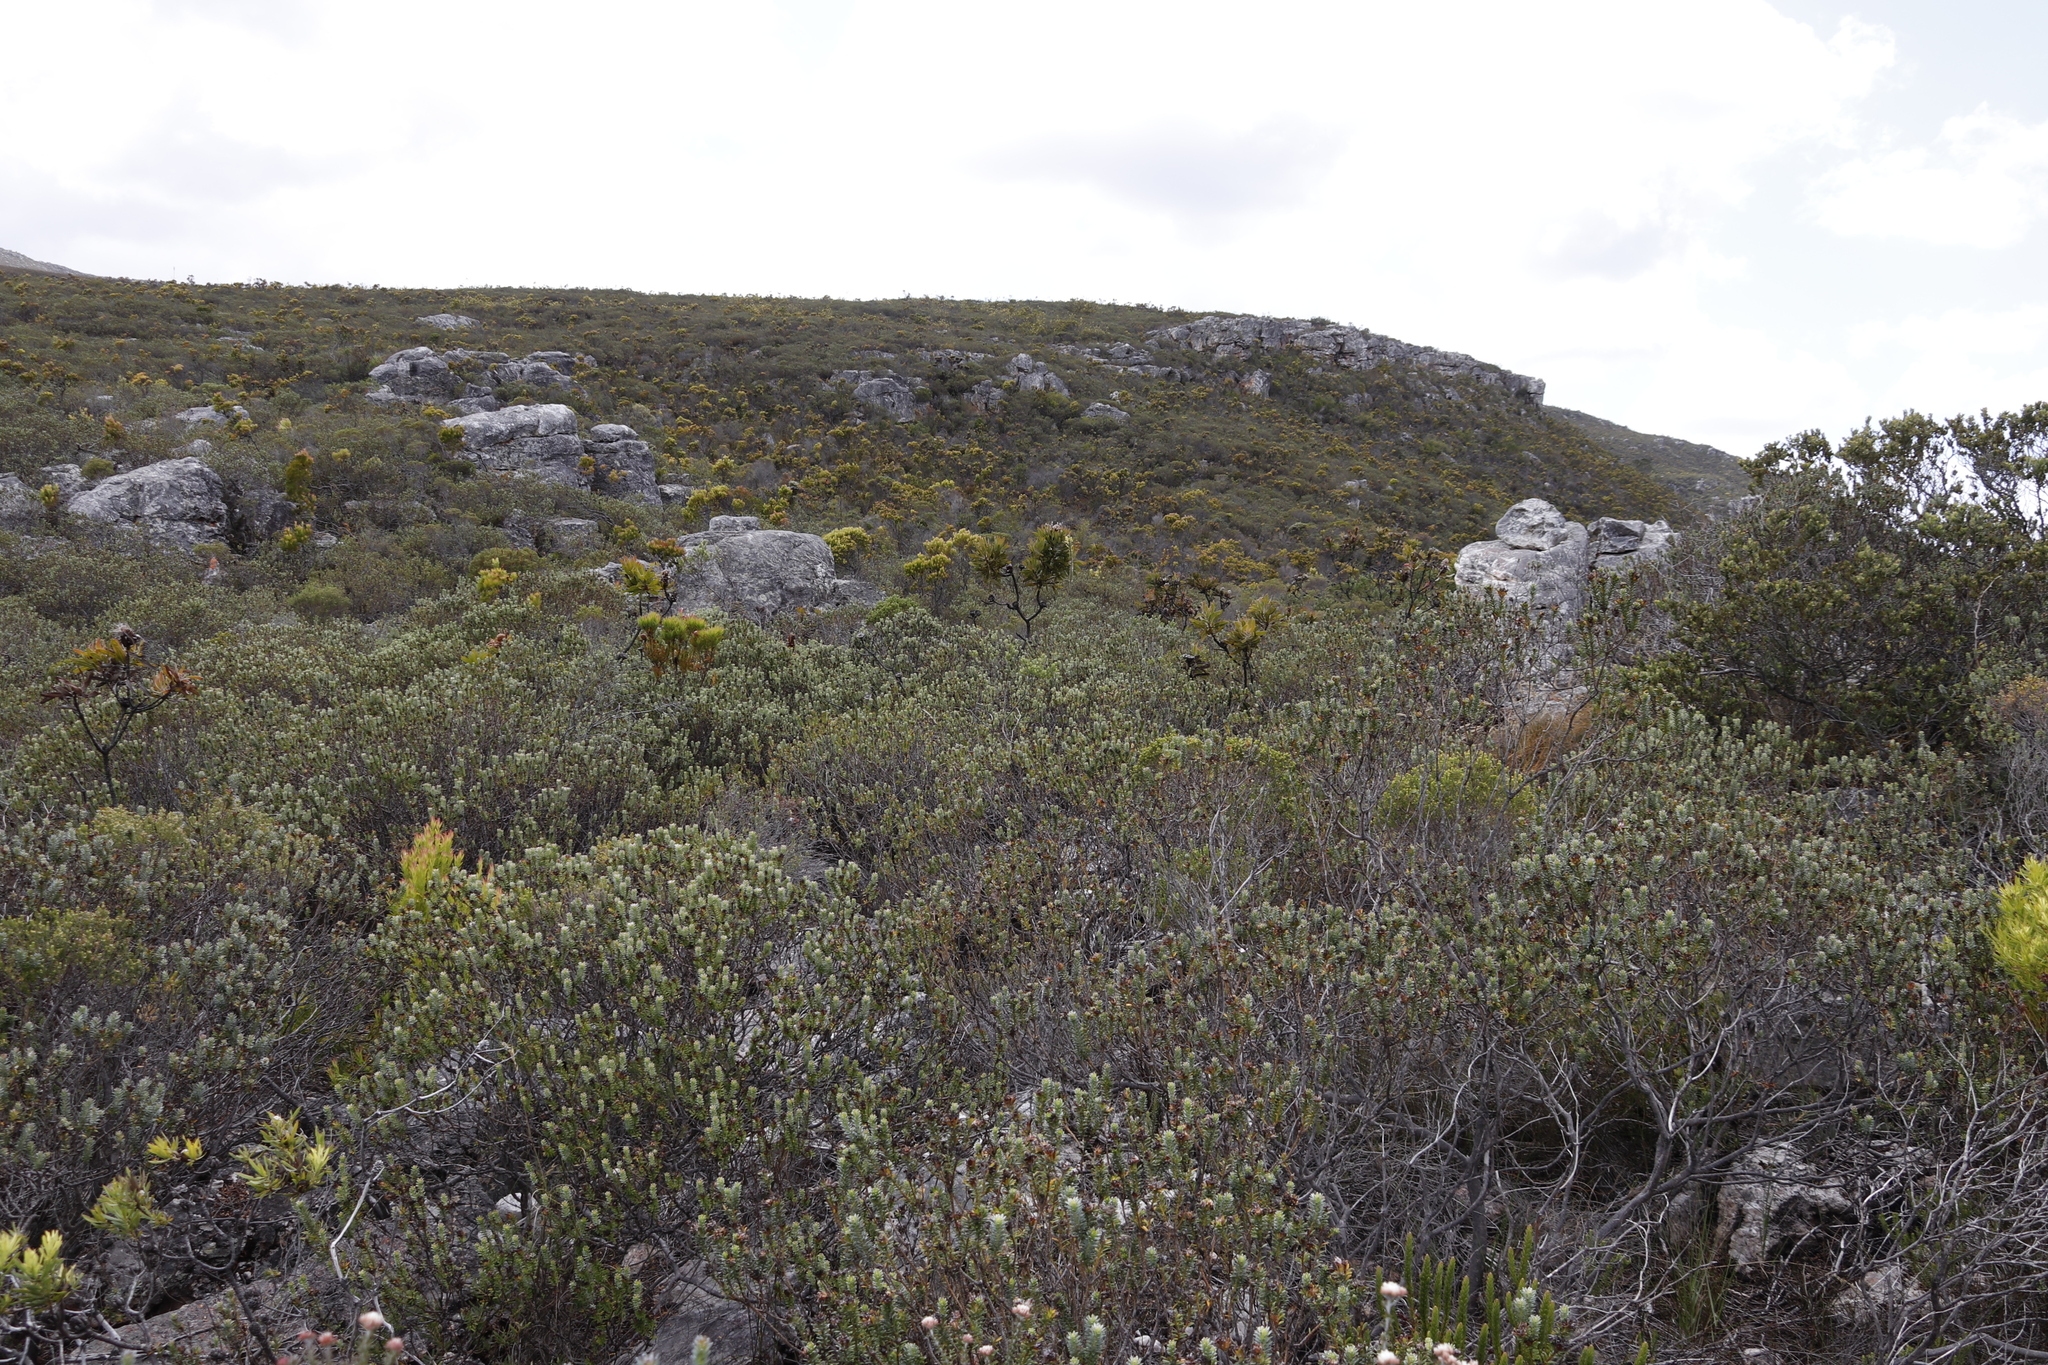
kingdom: Plantae
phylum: Tracheophyta
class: Magnoliopsida
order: Proteales
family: Proteaceae
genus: Leucadendron
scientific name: Leucadendron xanthoconus
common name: Sickle-leaf conebush
